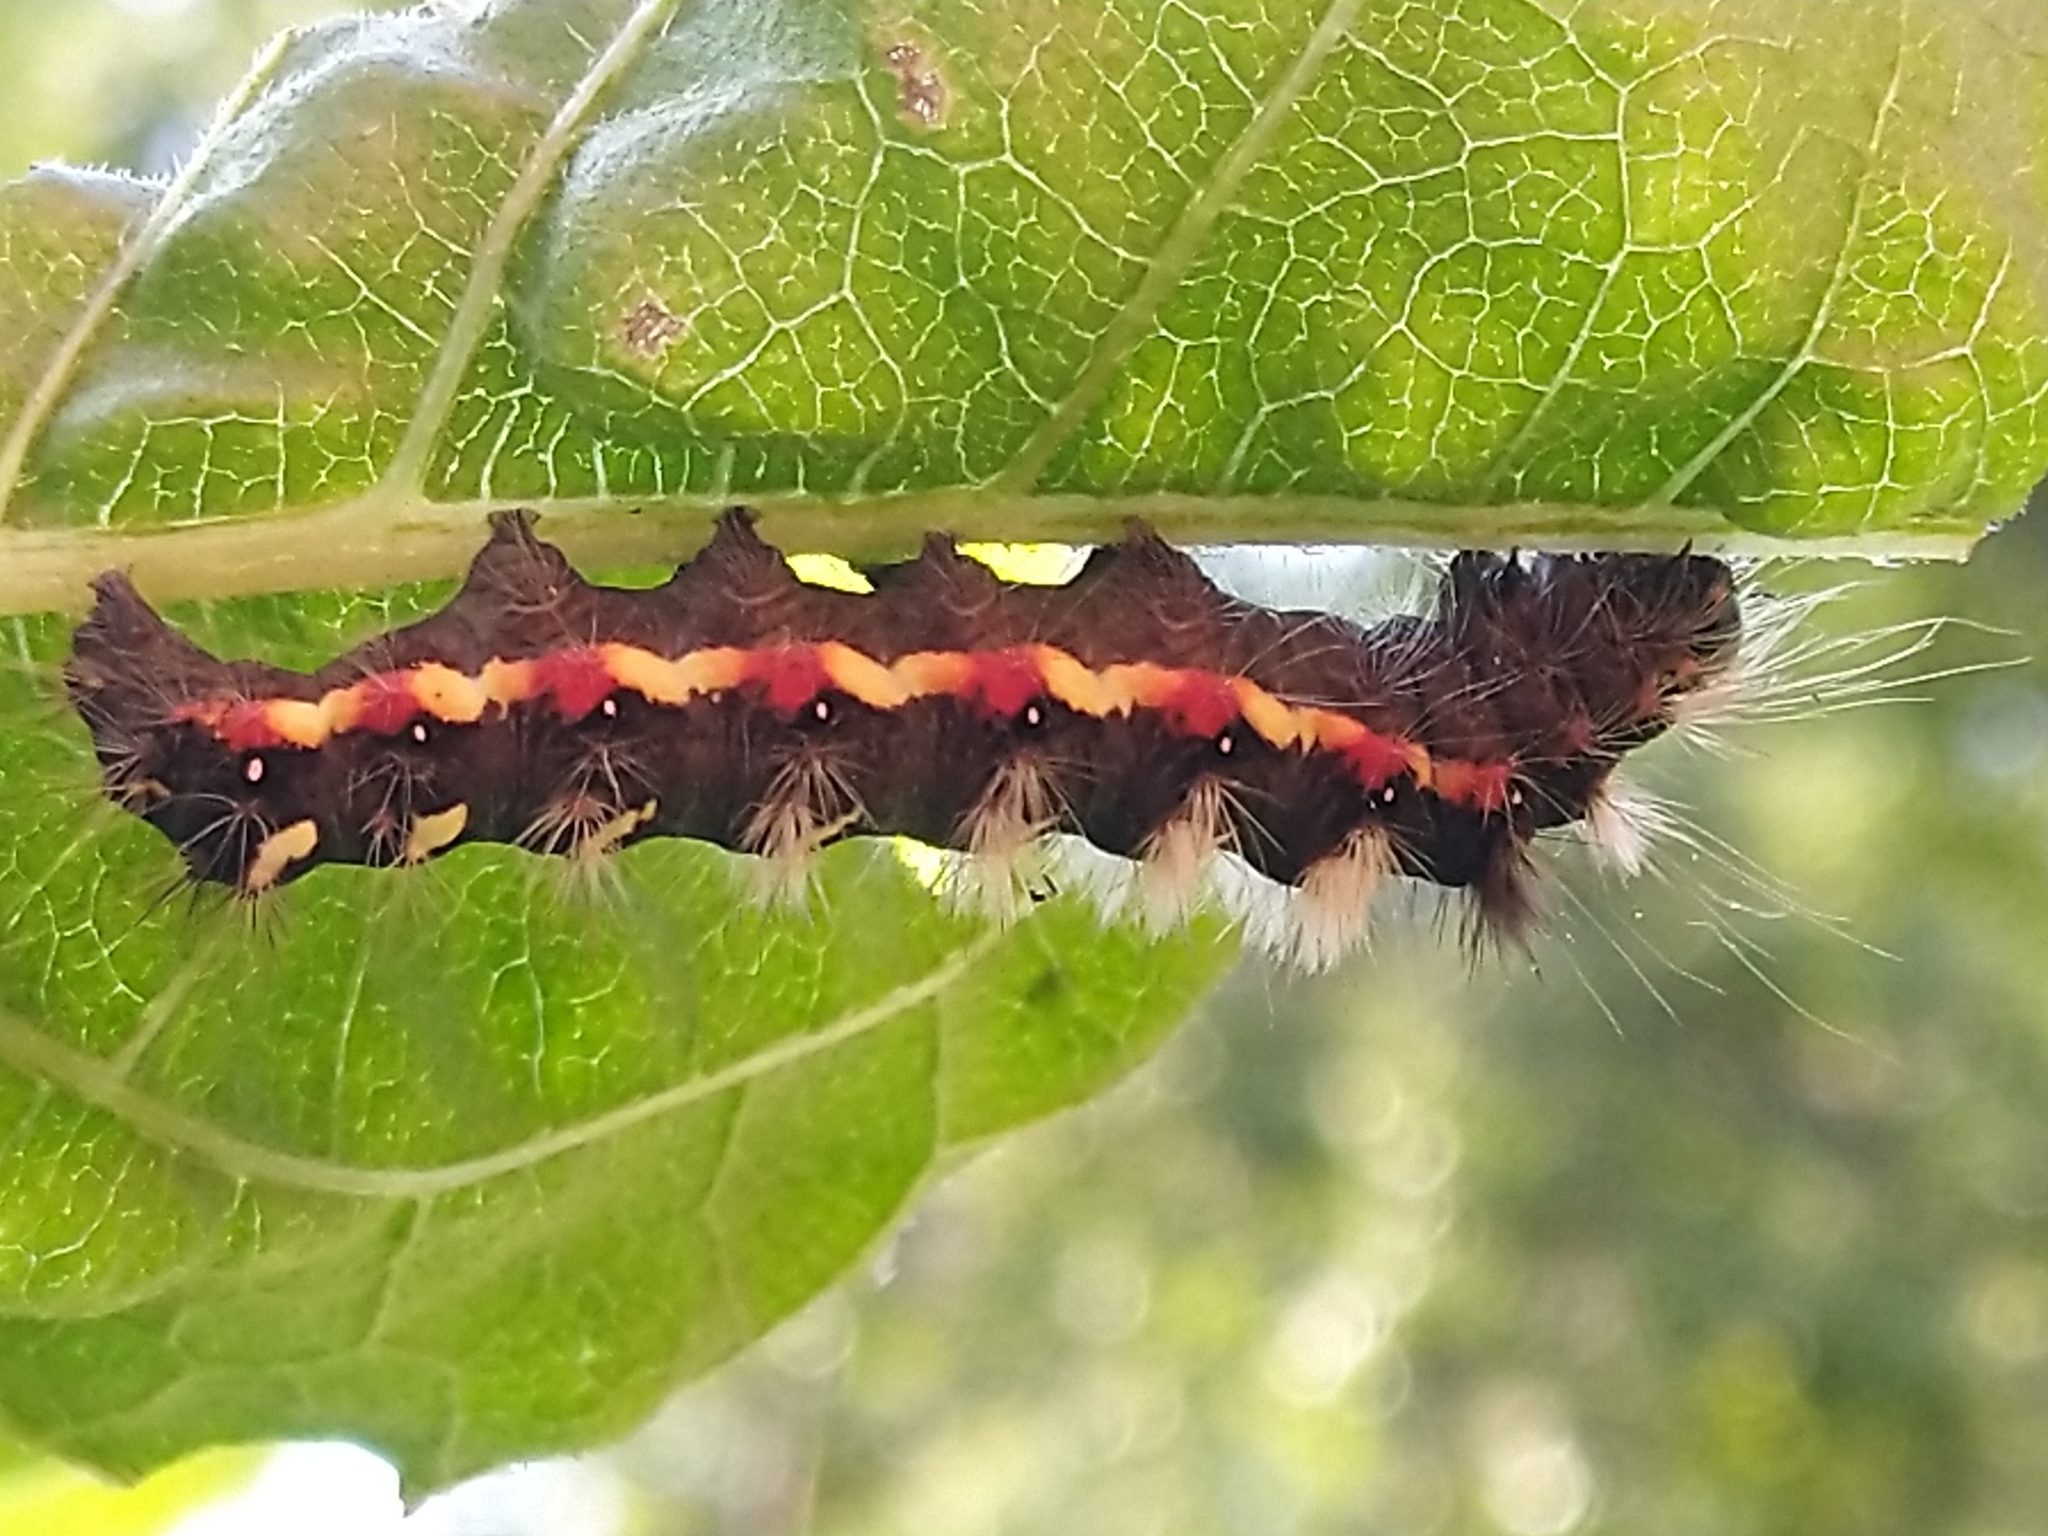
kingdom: Animalia
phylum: Arthropoda
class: Insecta
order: Lepidoptera
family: Noctuidae
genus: Acronicta
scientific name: Acronicta rumicis
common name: Knot grass
